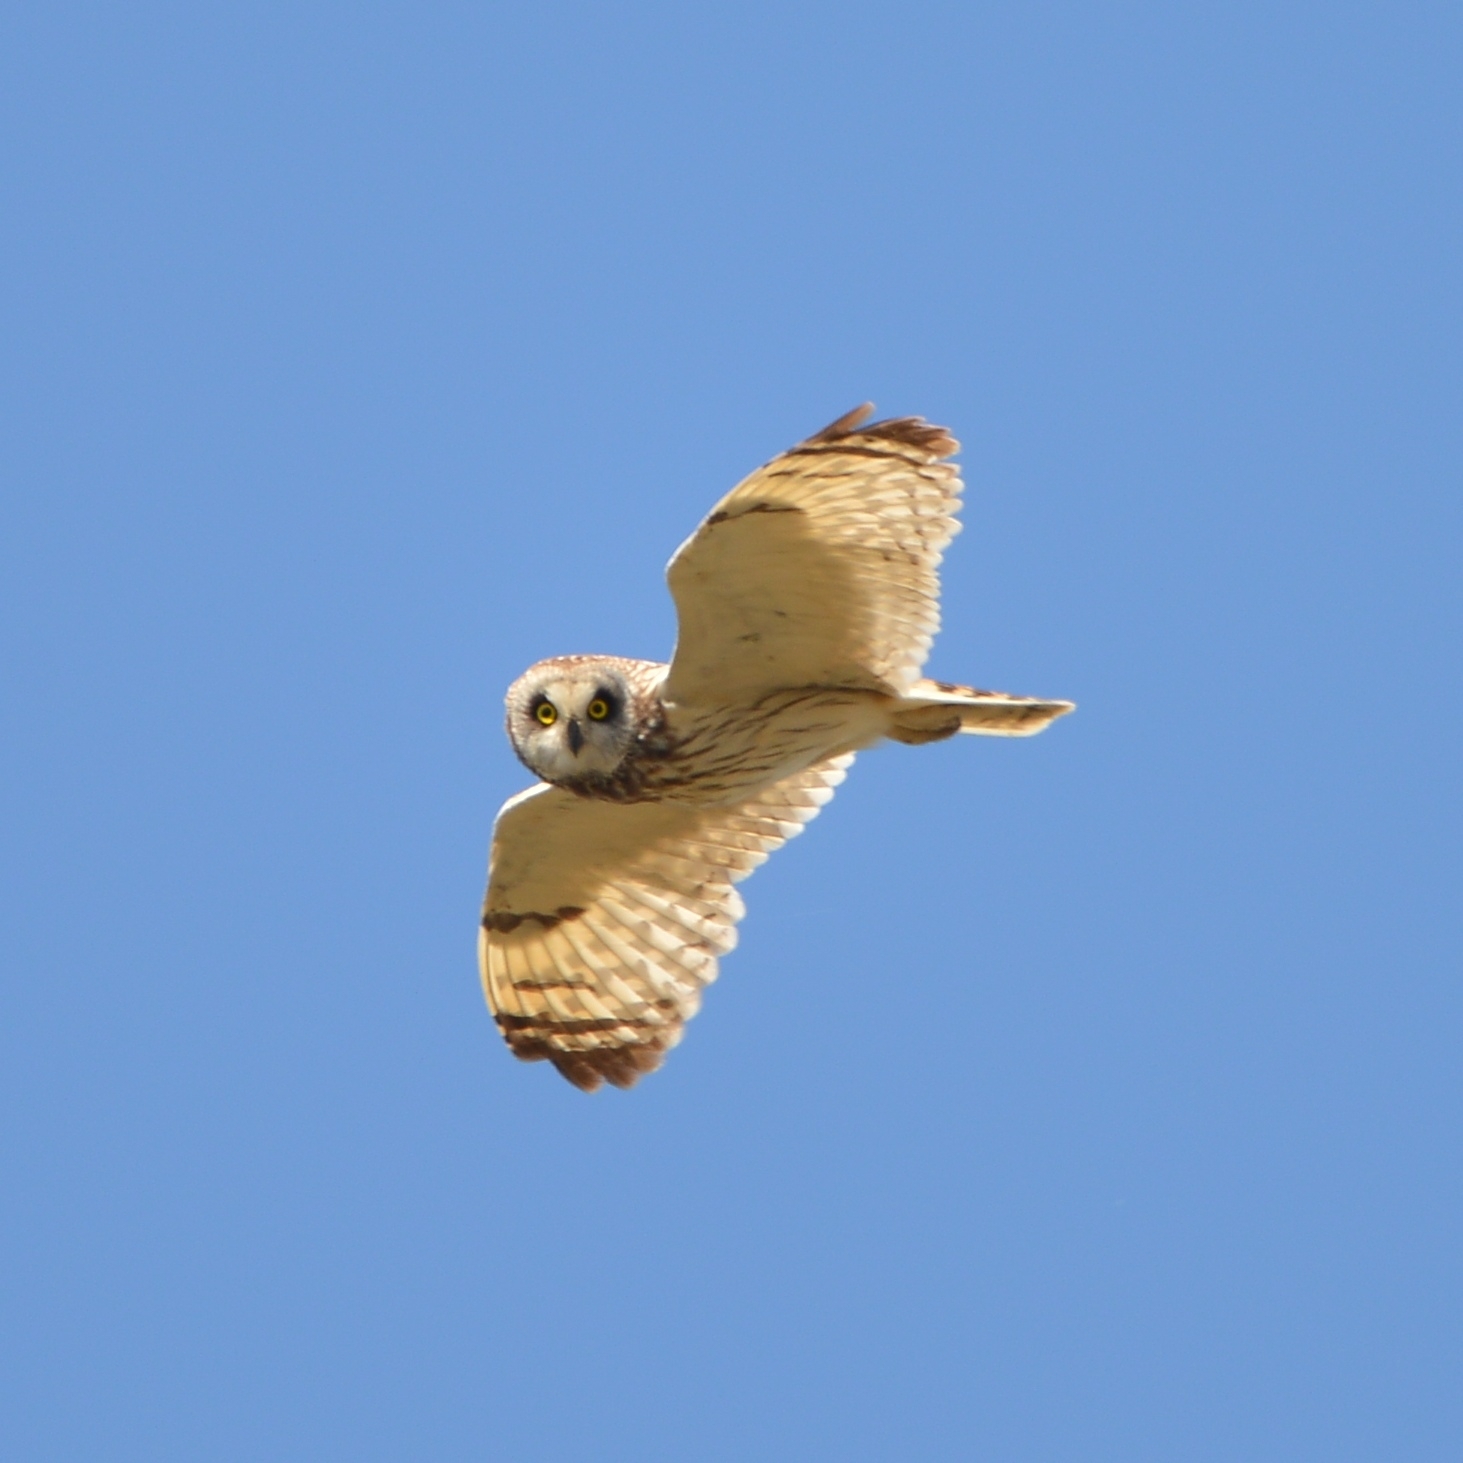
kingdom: Animalia
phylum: Chordata
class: Aves
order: Strigiformes
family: Strigidae
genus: Asio
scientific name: Asio flammeus
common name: Short-eared owl
